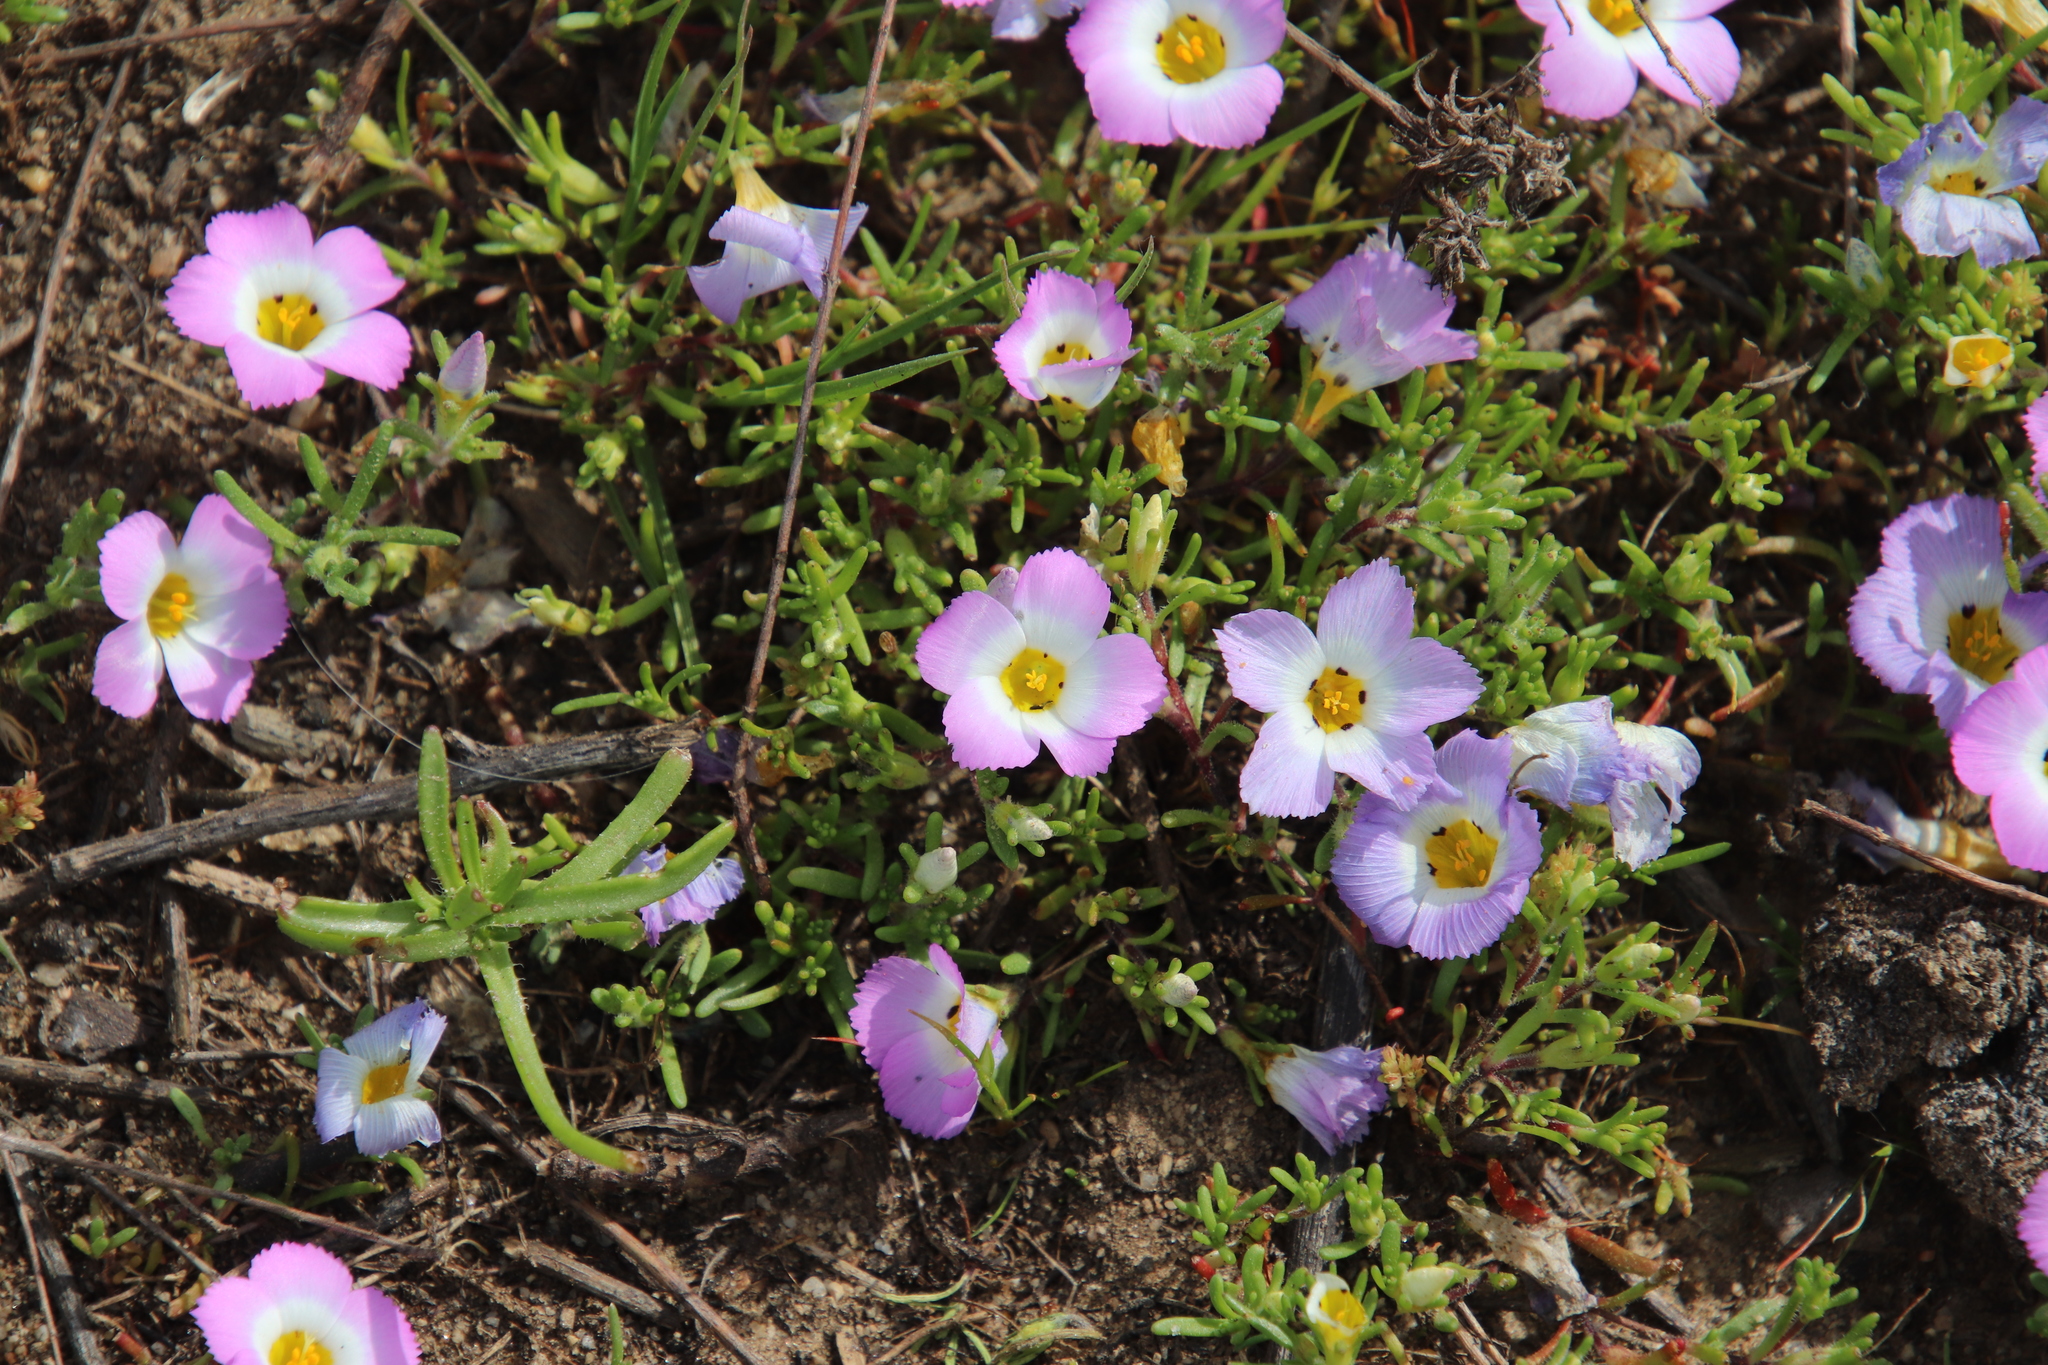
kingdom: Plantae
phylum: Tracheophyta
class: Magnoliopsida
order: Ericales
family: Polemoniaceae
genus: Linanthus
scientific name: Linanthus dianthiflorus
